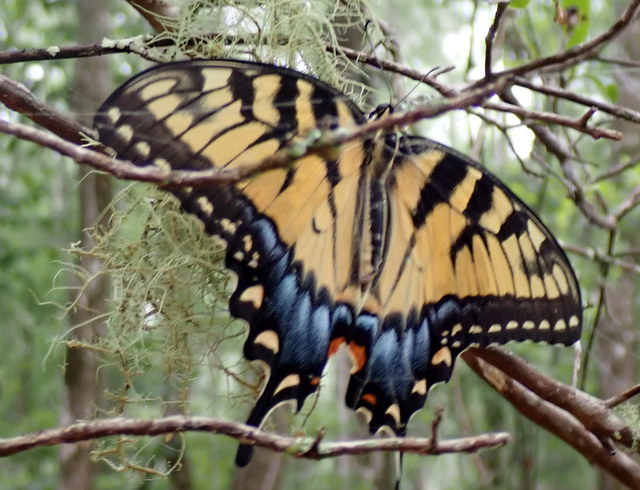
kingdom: Animalia
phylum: Arthropoda
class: Insecta
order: Lepidoptera
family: Papilionidae
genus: Papilio
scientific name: Papilio glaucus
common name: Tiger swallowtail
